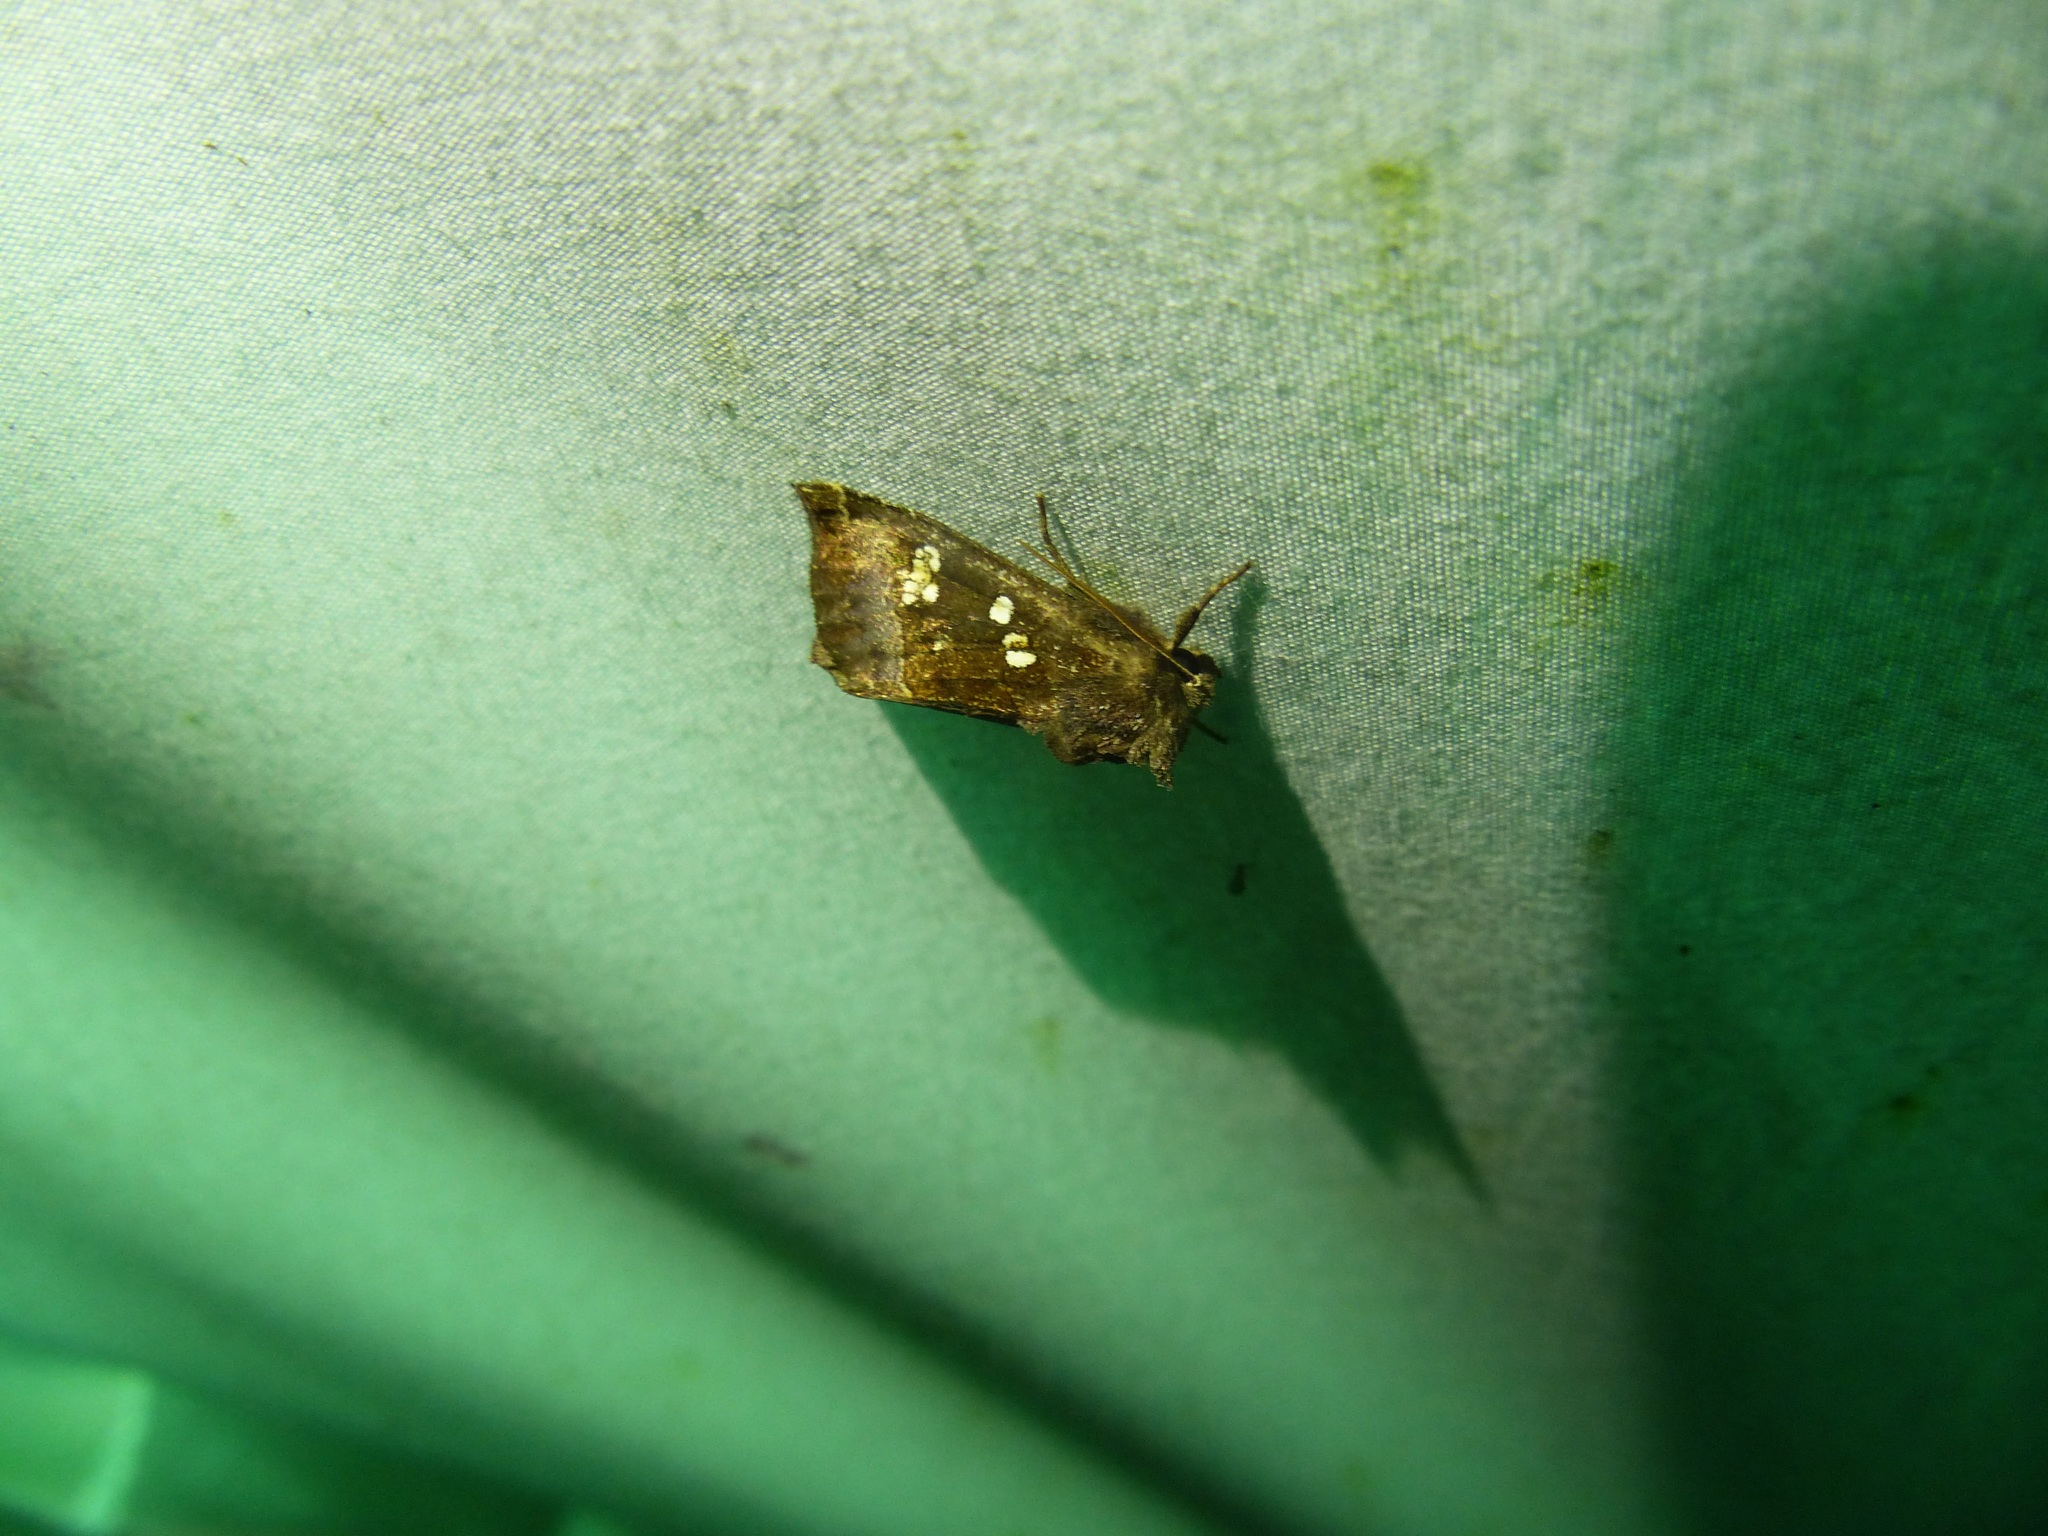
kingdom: Animalia
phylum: Arthropoda
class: Insecta
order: Lepidoptera
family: Noctuidae
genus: Papaipema
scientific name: Papaipema unimoda
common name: Meadow rue borer moth
